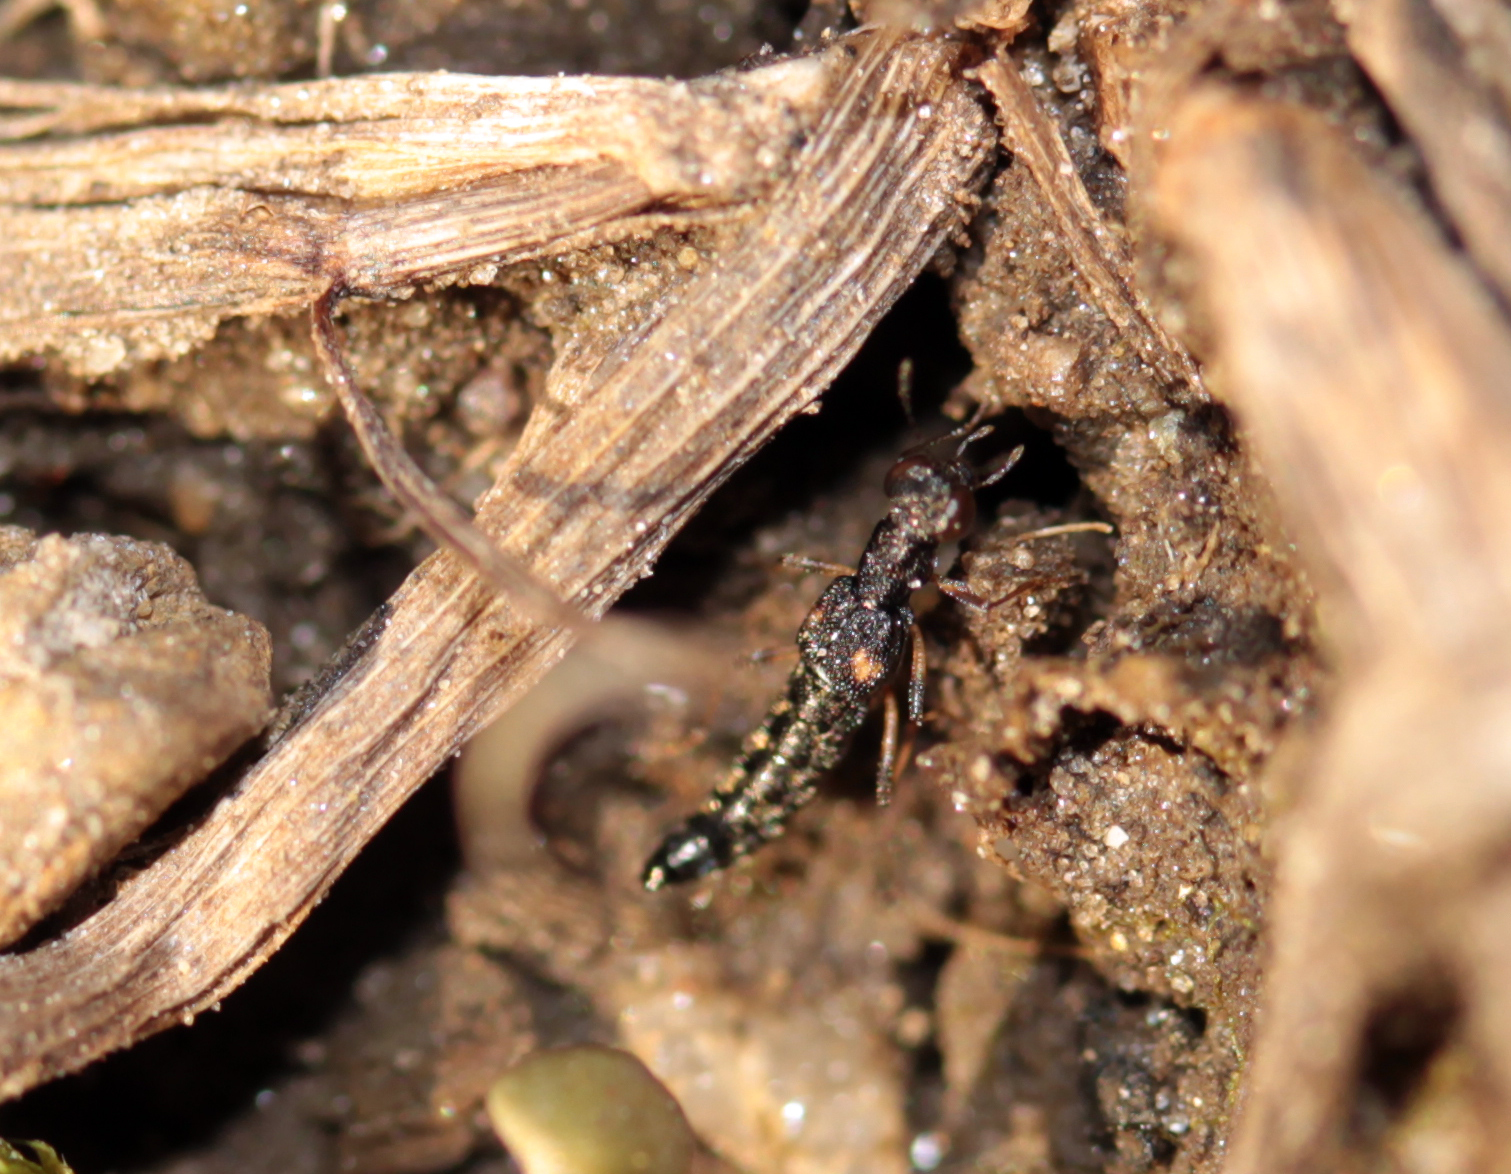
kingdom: Animalia
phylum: Arthropoda
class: Insecta
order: Coleoptera
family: Staphylinidae
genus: Stenus
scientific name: Stenus colon
